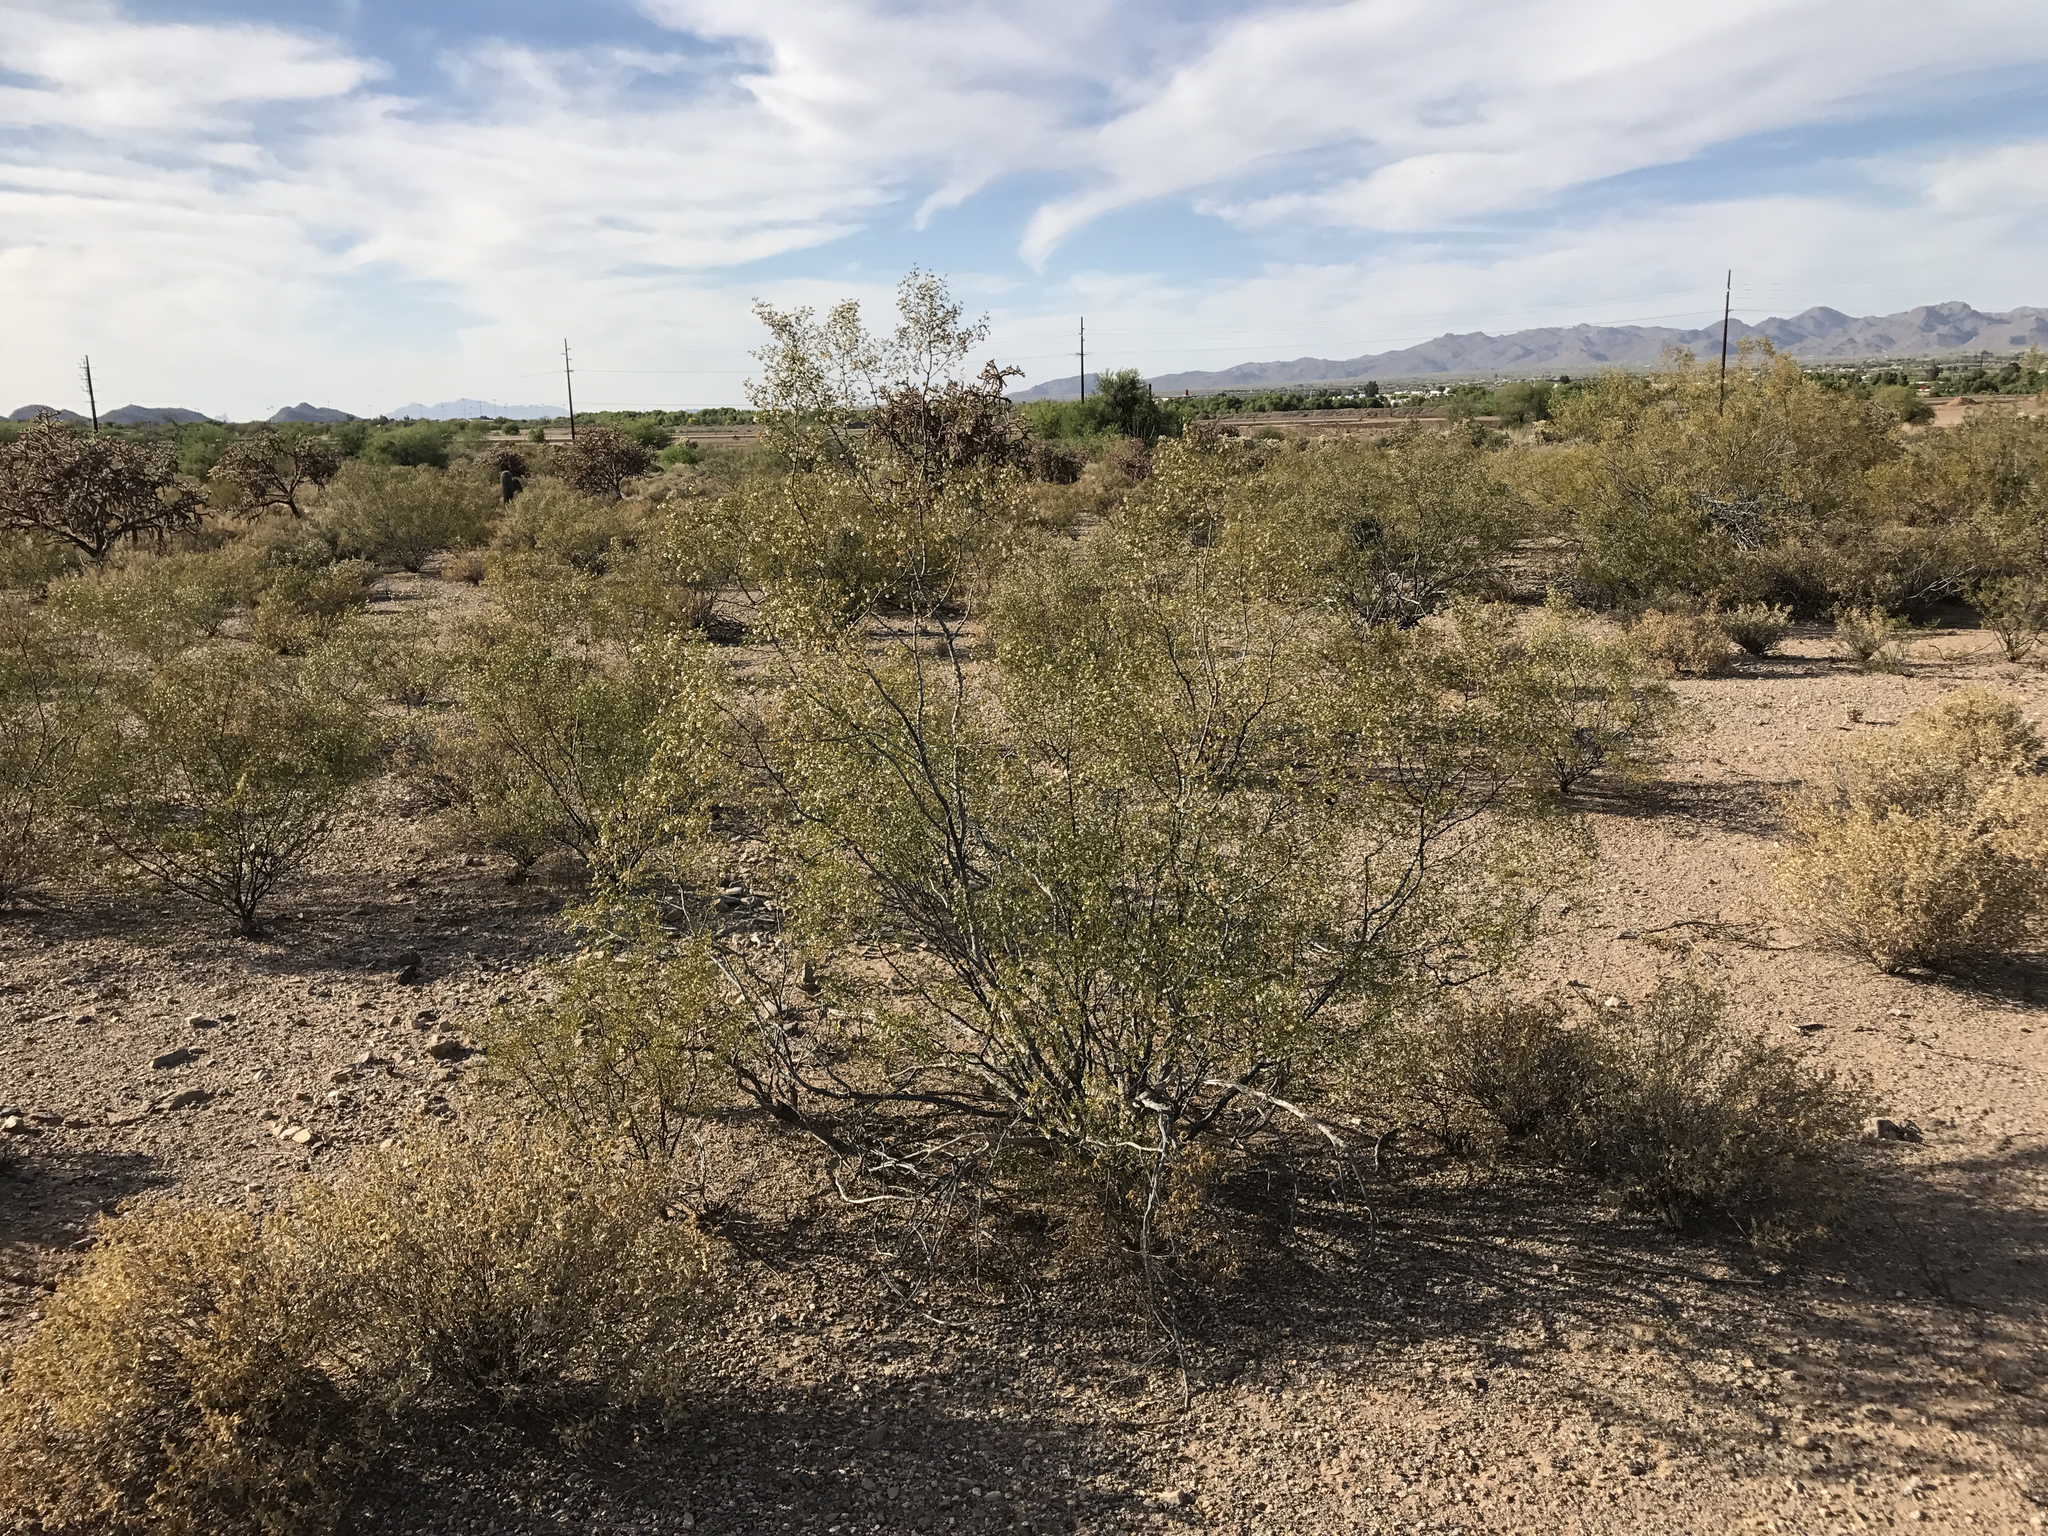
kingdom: Plantae
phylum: Tracheophyta
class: Magnoliopsida
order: Zygophyllales
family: Zygophyllaceae
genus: Larrea
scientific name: Larrea tridentata
